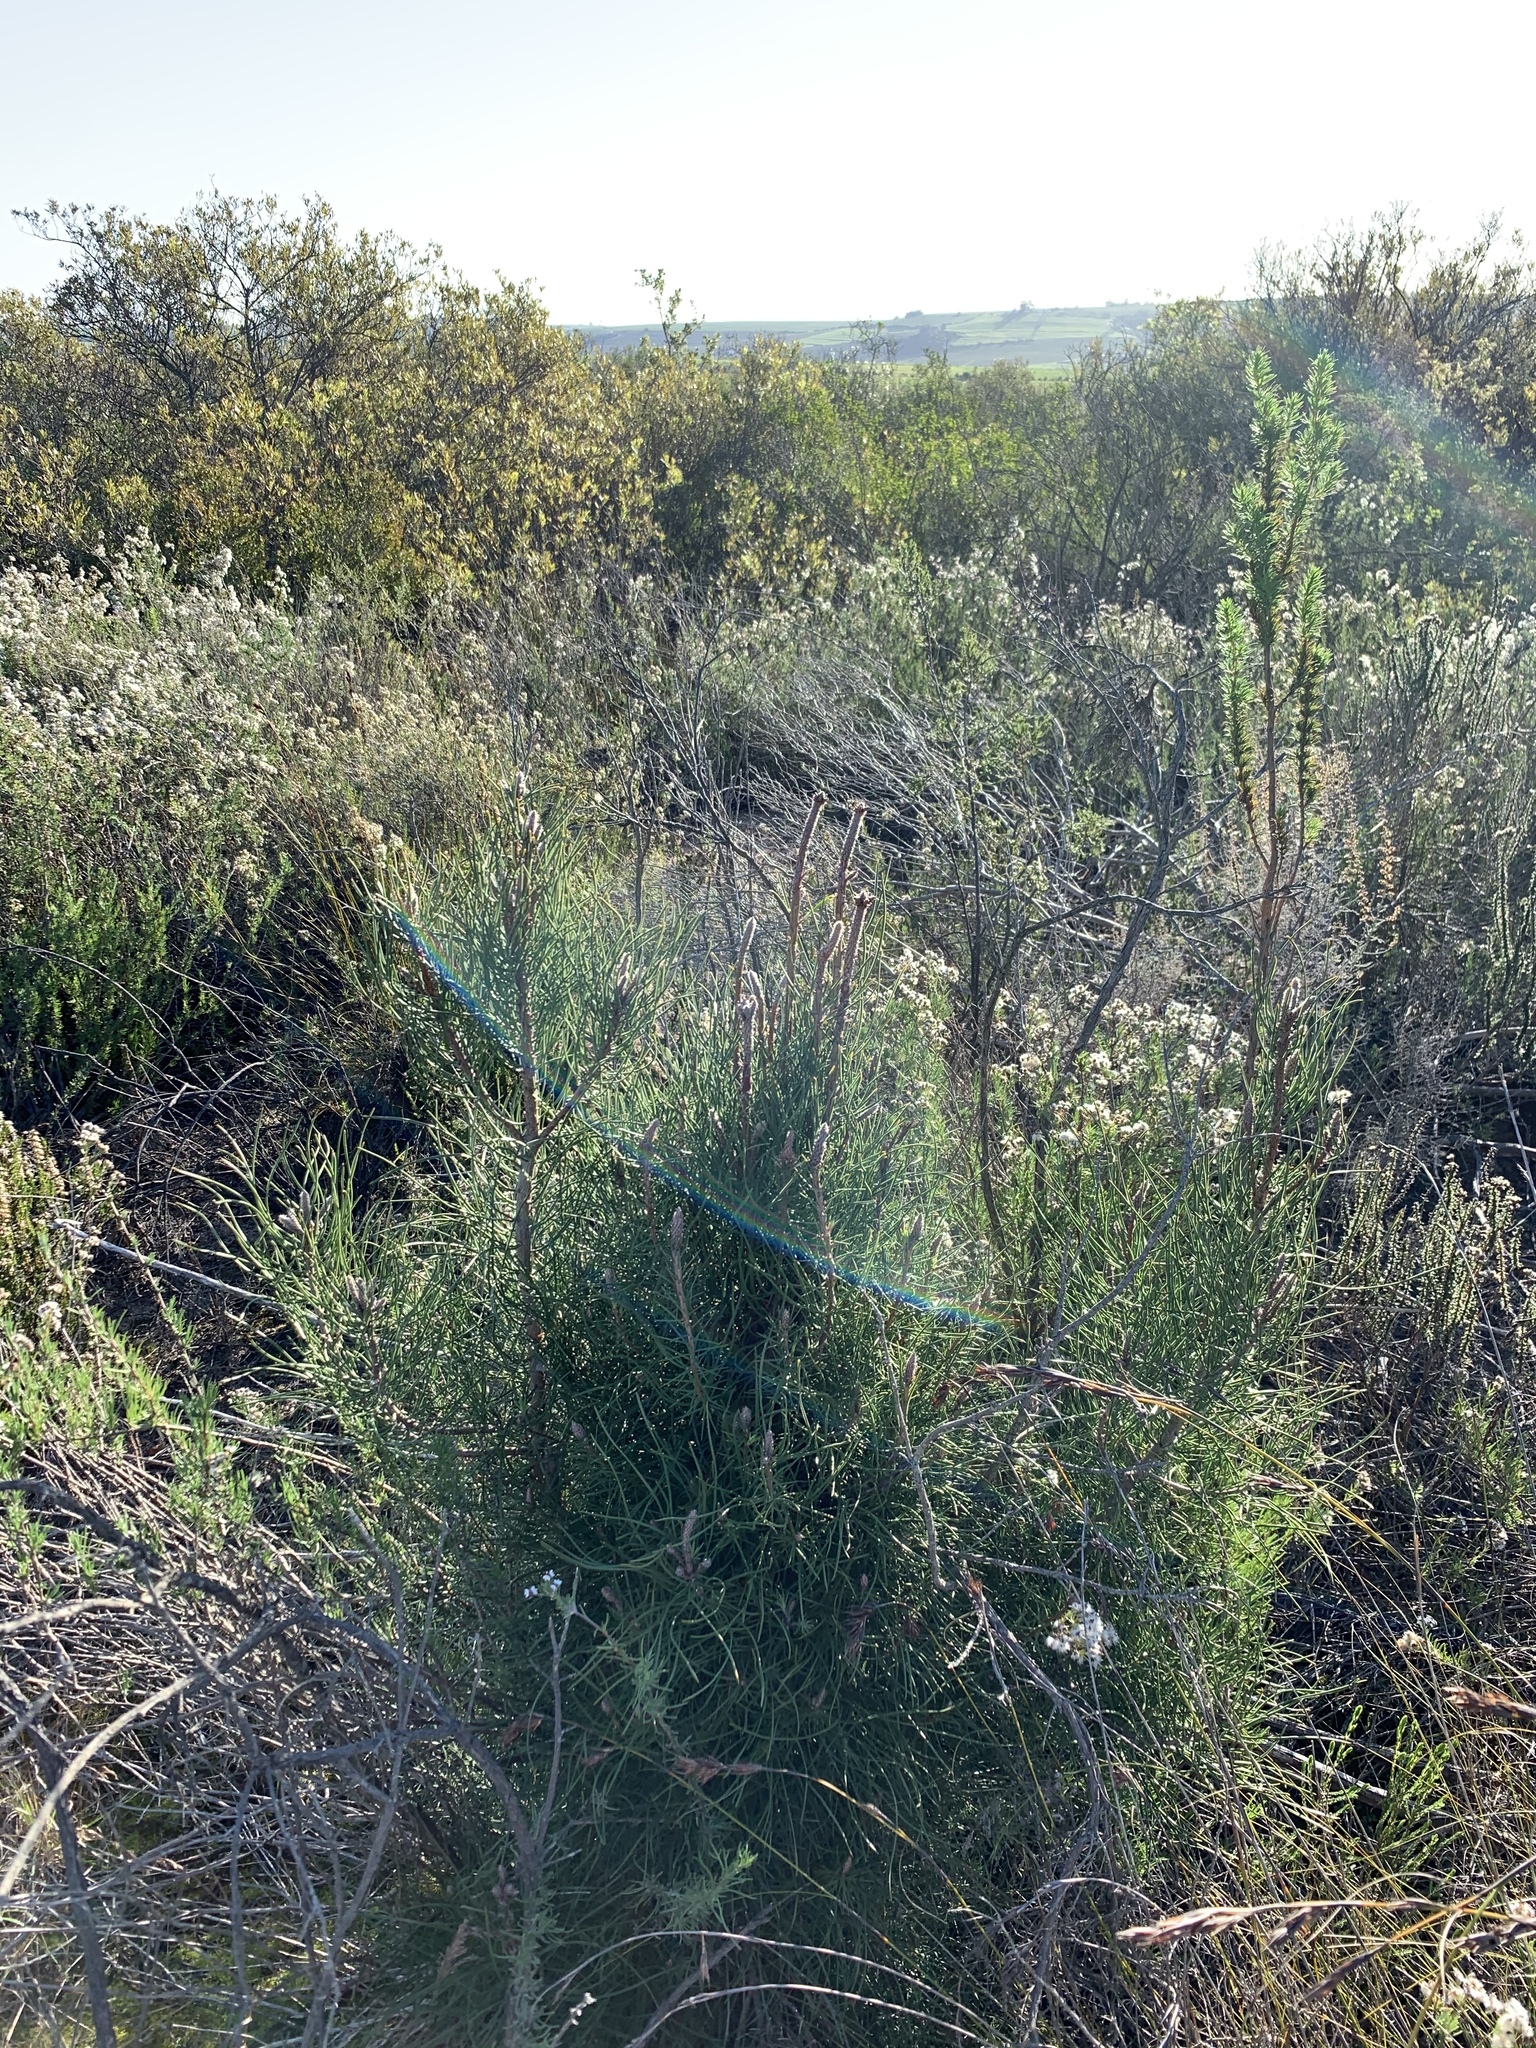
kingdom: Plantae
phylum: Tracheophyta
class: Pinopsida
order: Pinales
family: Pinaceae
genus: Pinus
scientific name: Pinus pinaster
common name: Maritime pine
